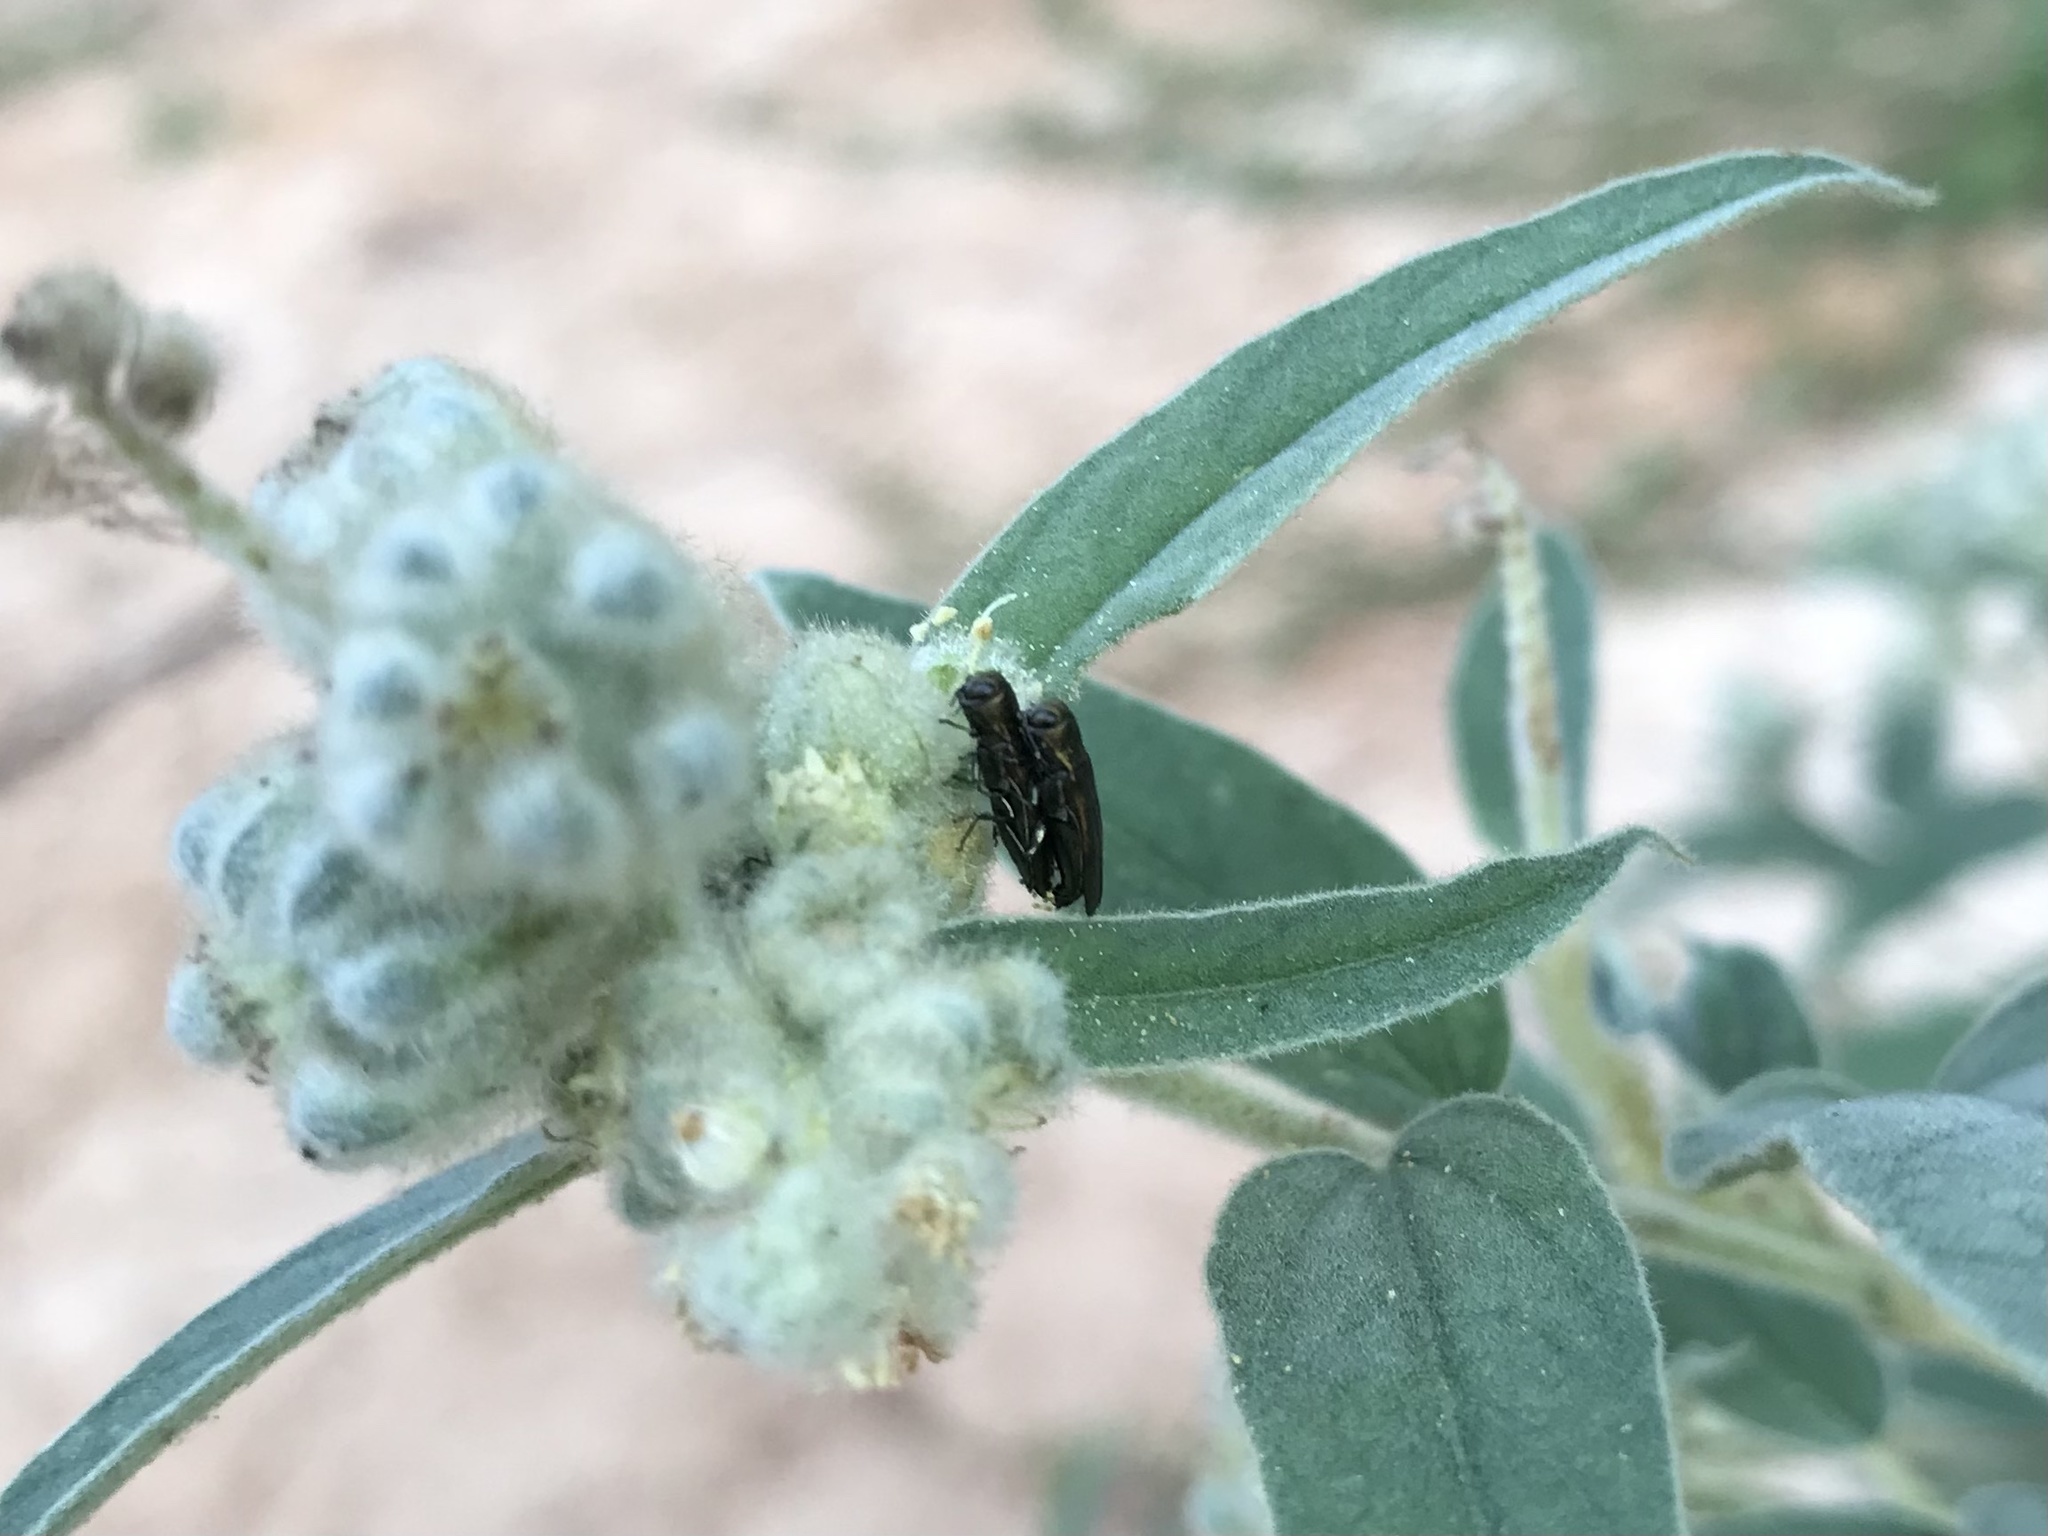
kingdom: Animalia
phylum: Arthropoda
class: Insecta
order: Coleoptera
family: Buprestidae
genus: Agrilus
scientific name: Agrilus lacustris
